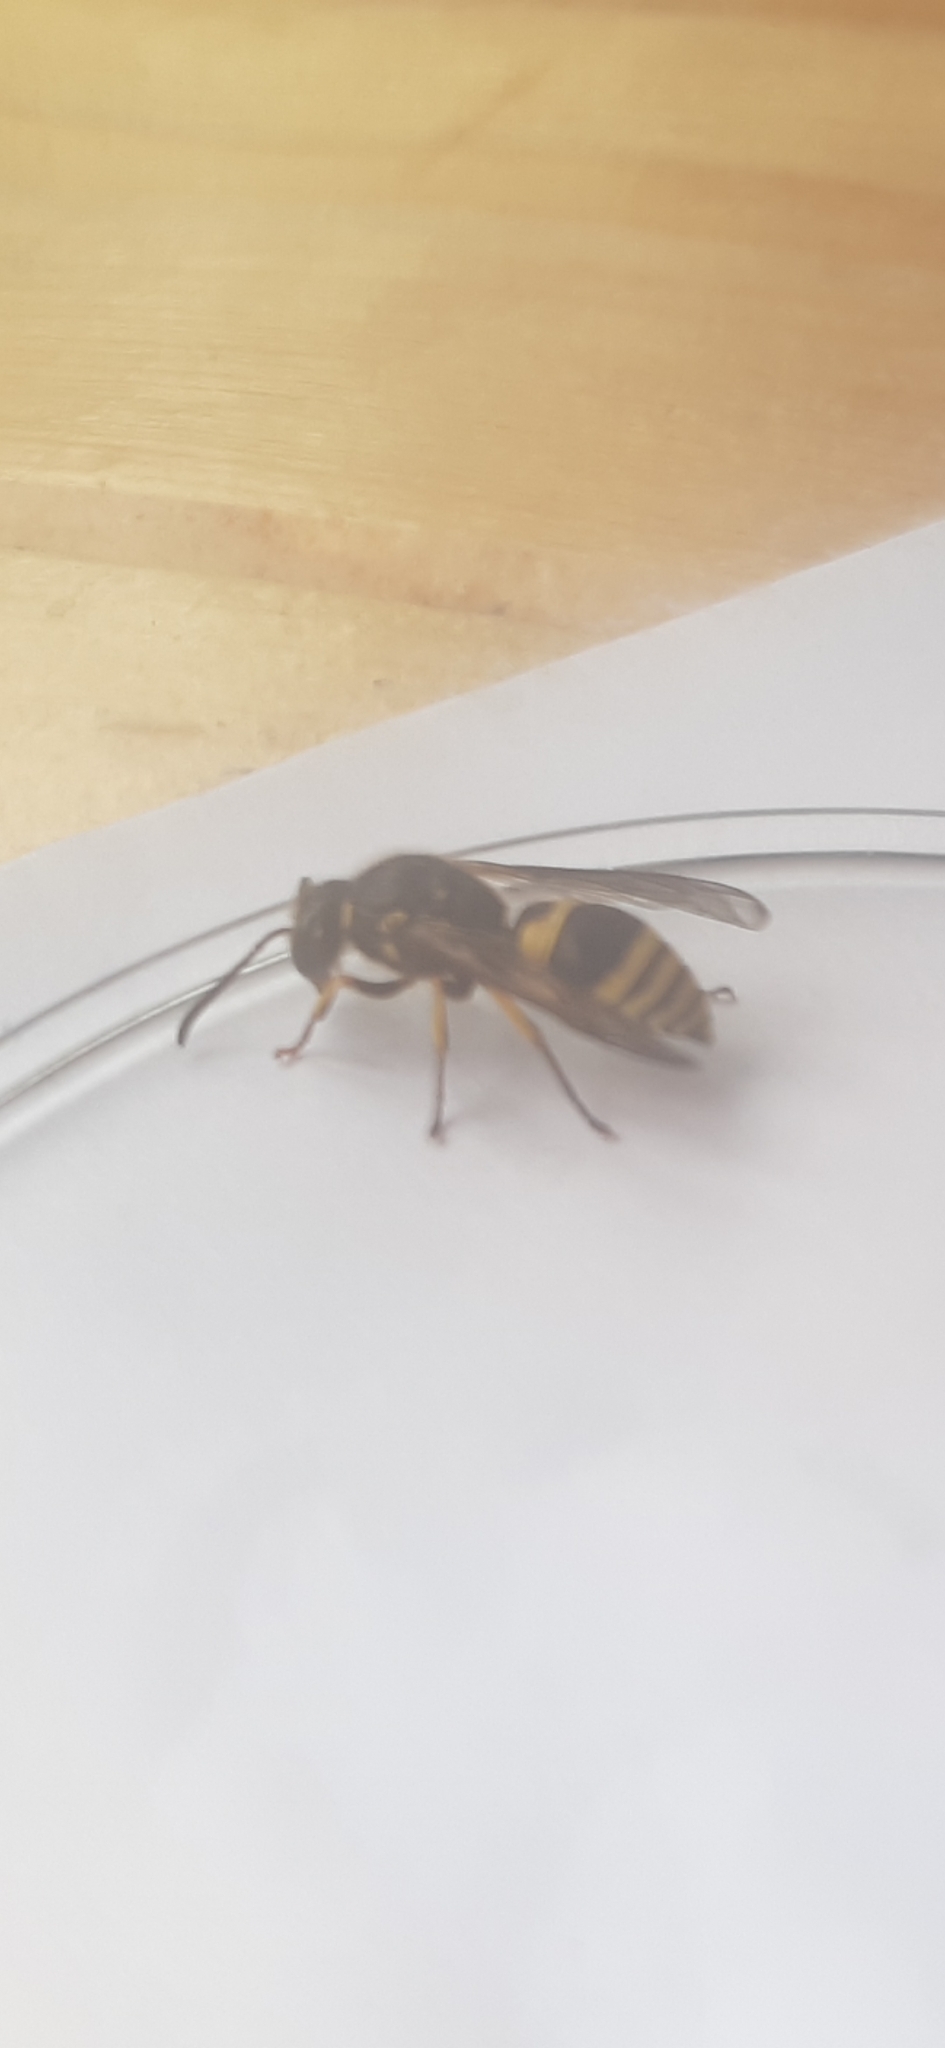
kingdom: Animalia
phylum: Arthropoda
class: Insecta
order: Hymenoptera
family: Vespidae
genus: Ancistrocerus
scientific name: Ancistrocerus parietinus
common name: Wall mason wasp
